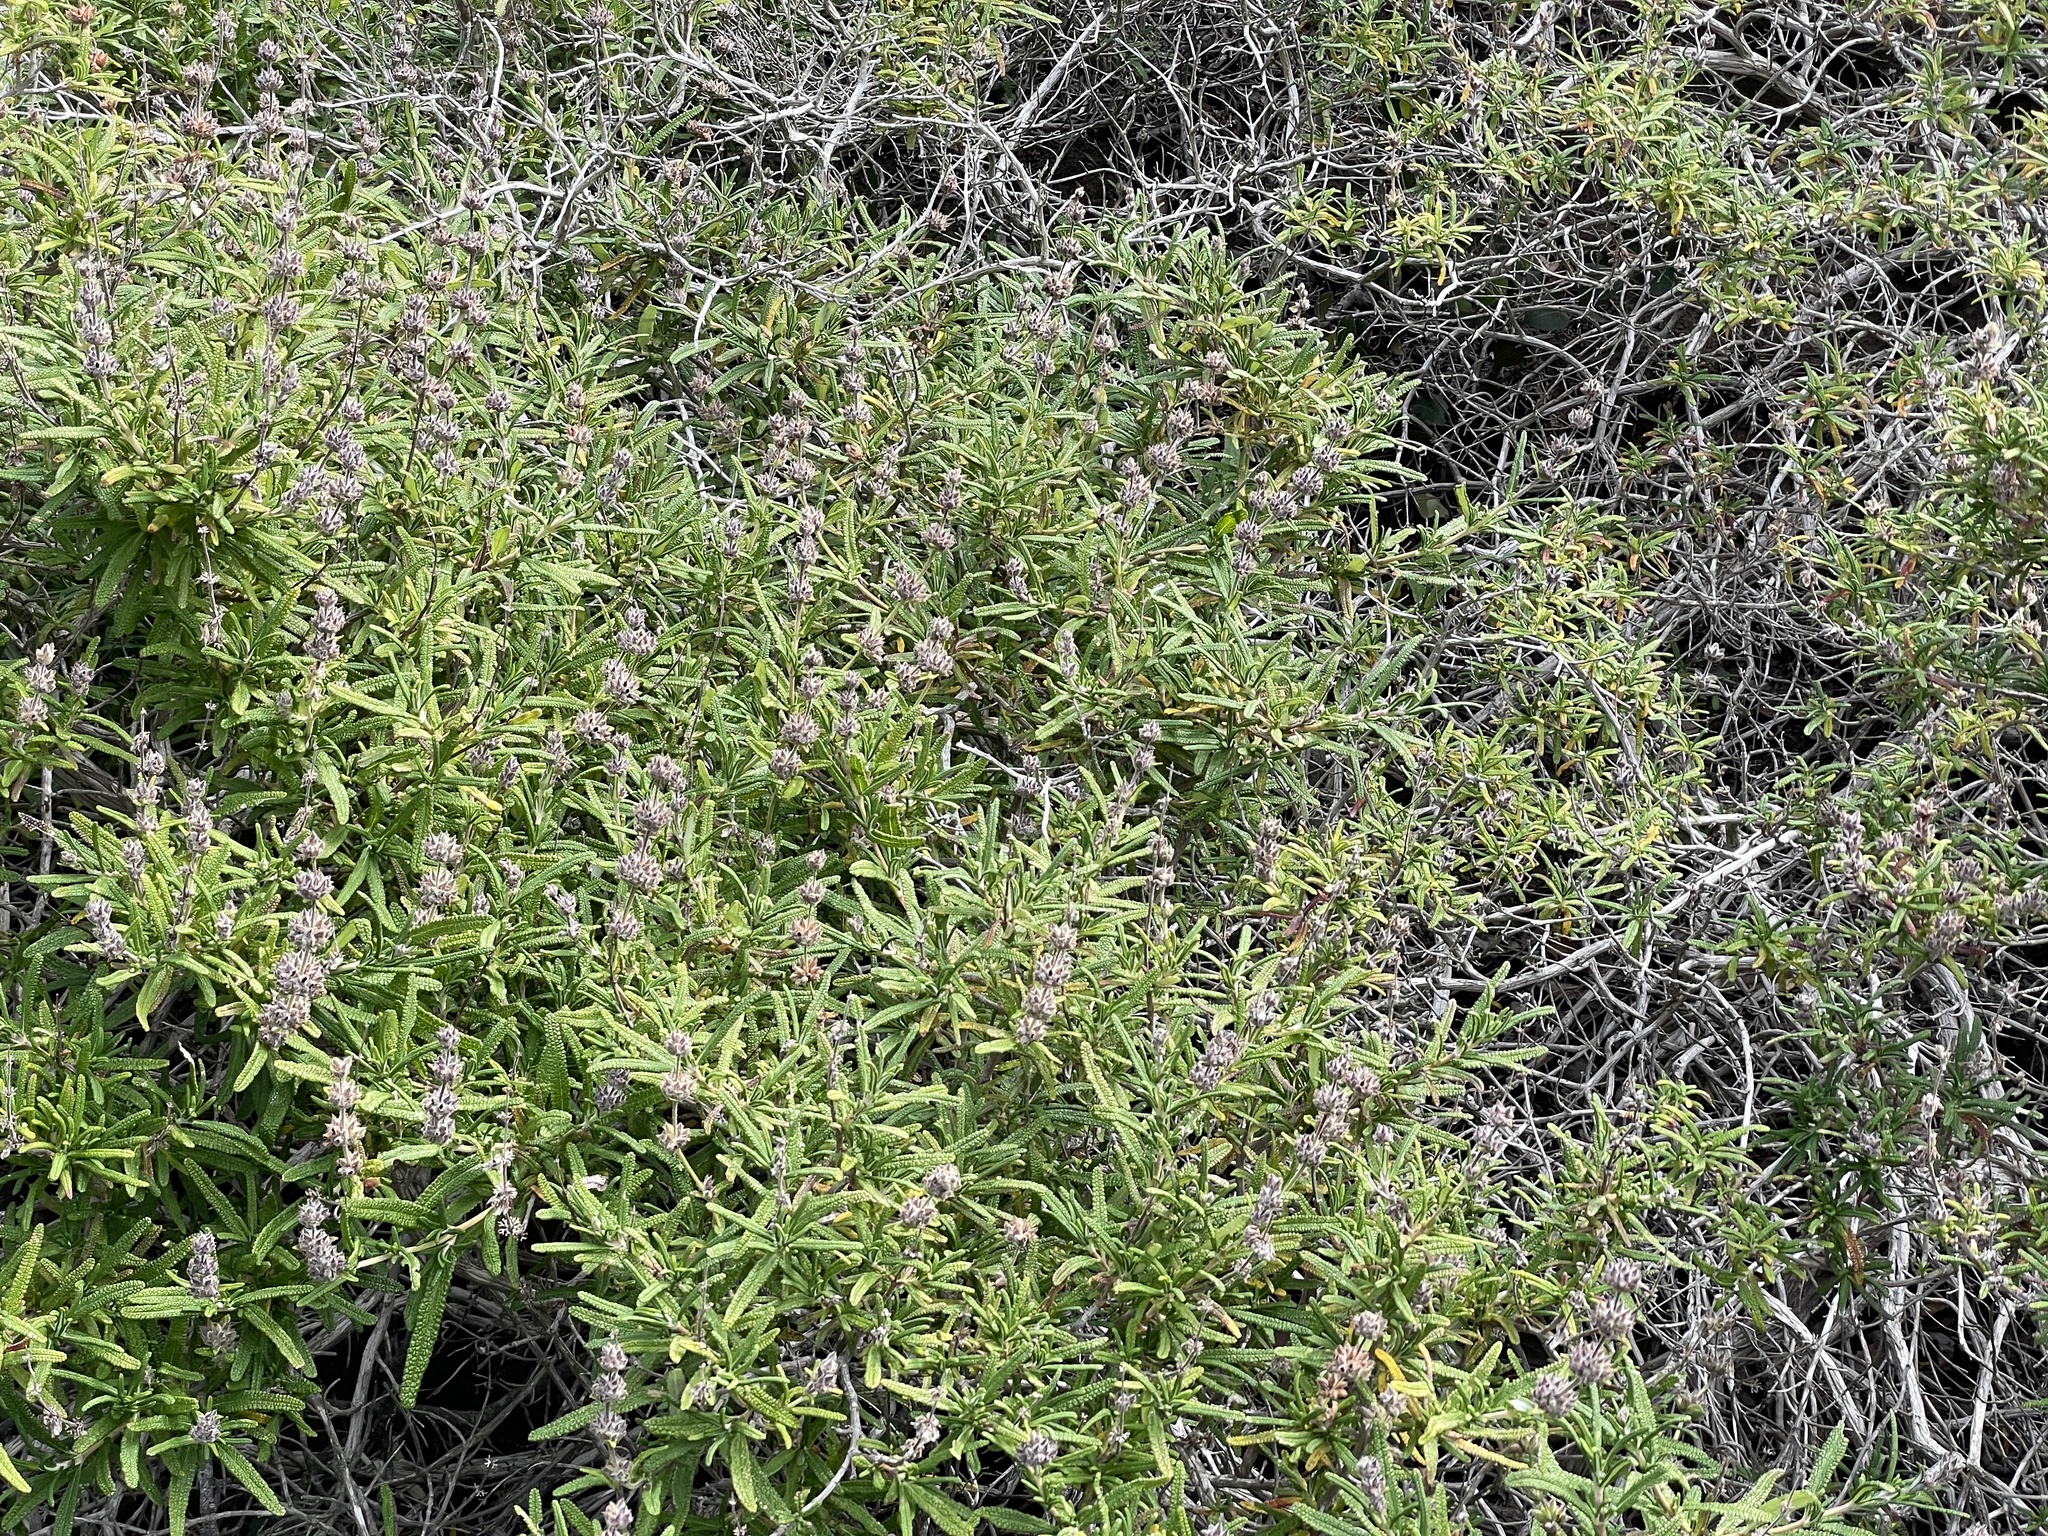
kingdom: Plantae
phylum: Tracheophyta
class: Magnoliopsida
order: Lamiales
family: Lamiaceae
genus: Salvia
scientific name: Salvia brandegeei
